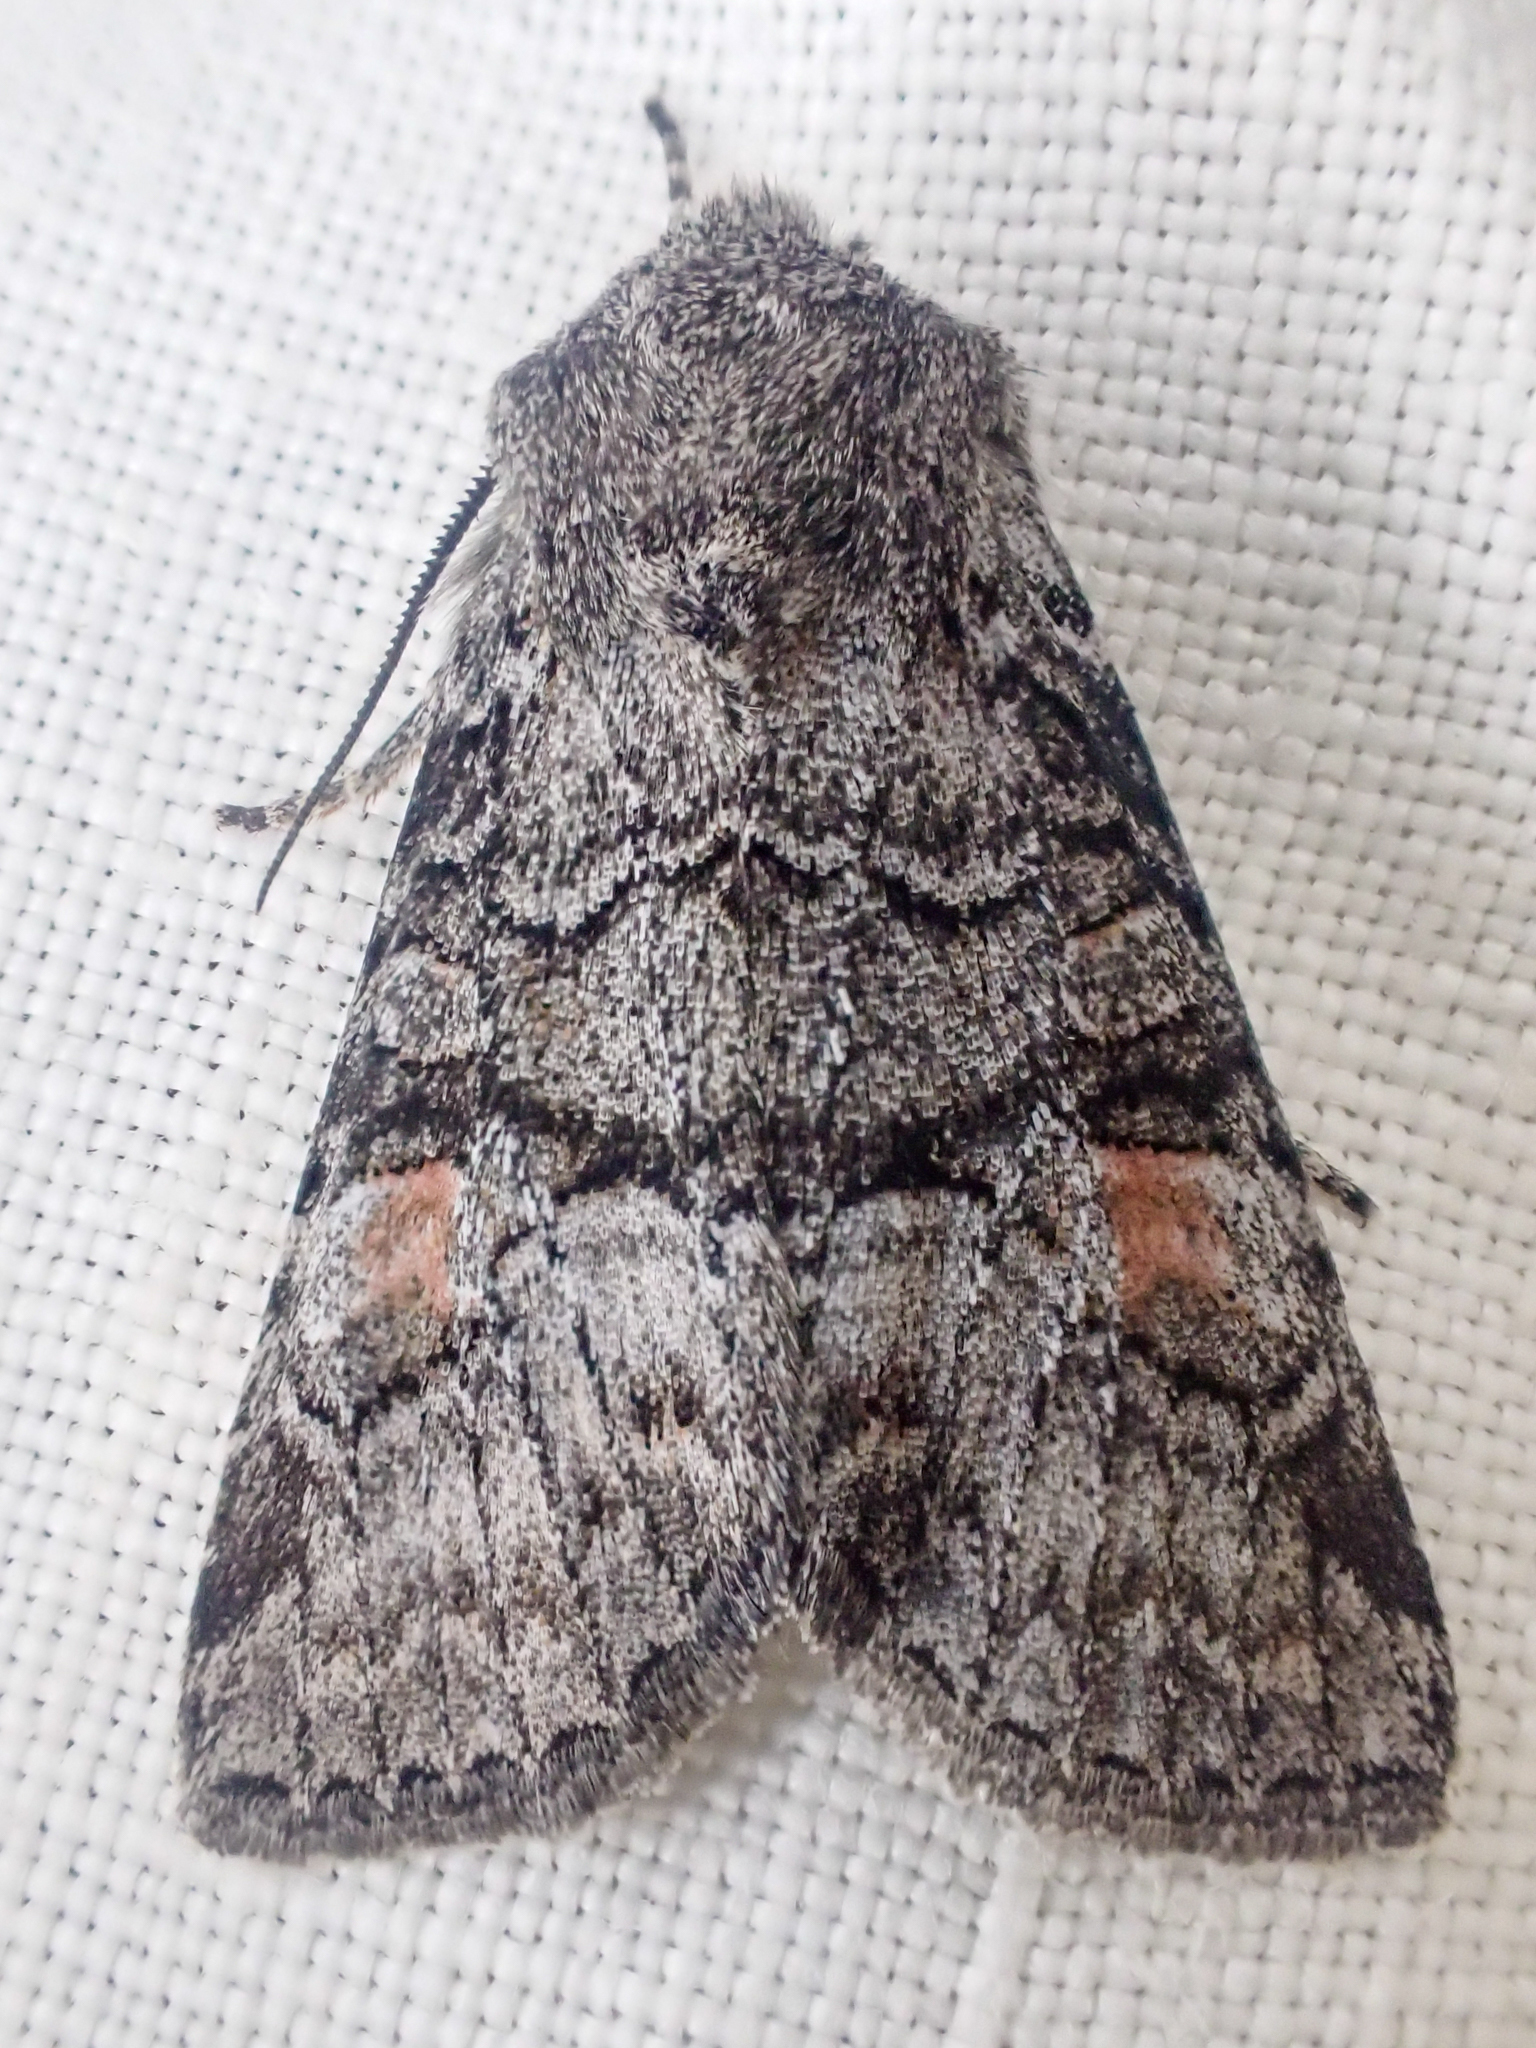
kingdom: Animalia
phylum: Arthropoda
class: Insecta
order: Lepidoptera
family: Noctuidae
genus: Brachylomia
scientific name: Brachylomia cascadia
